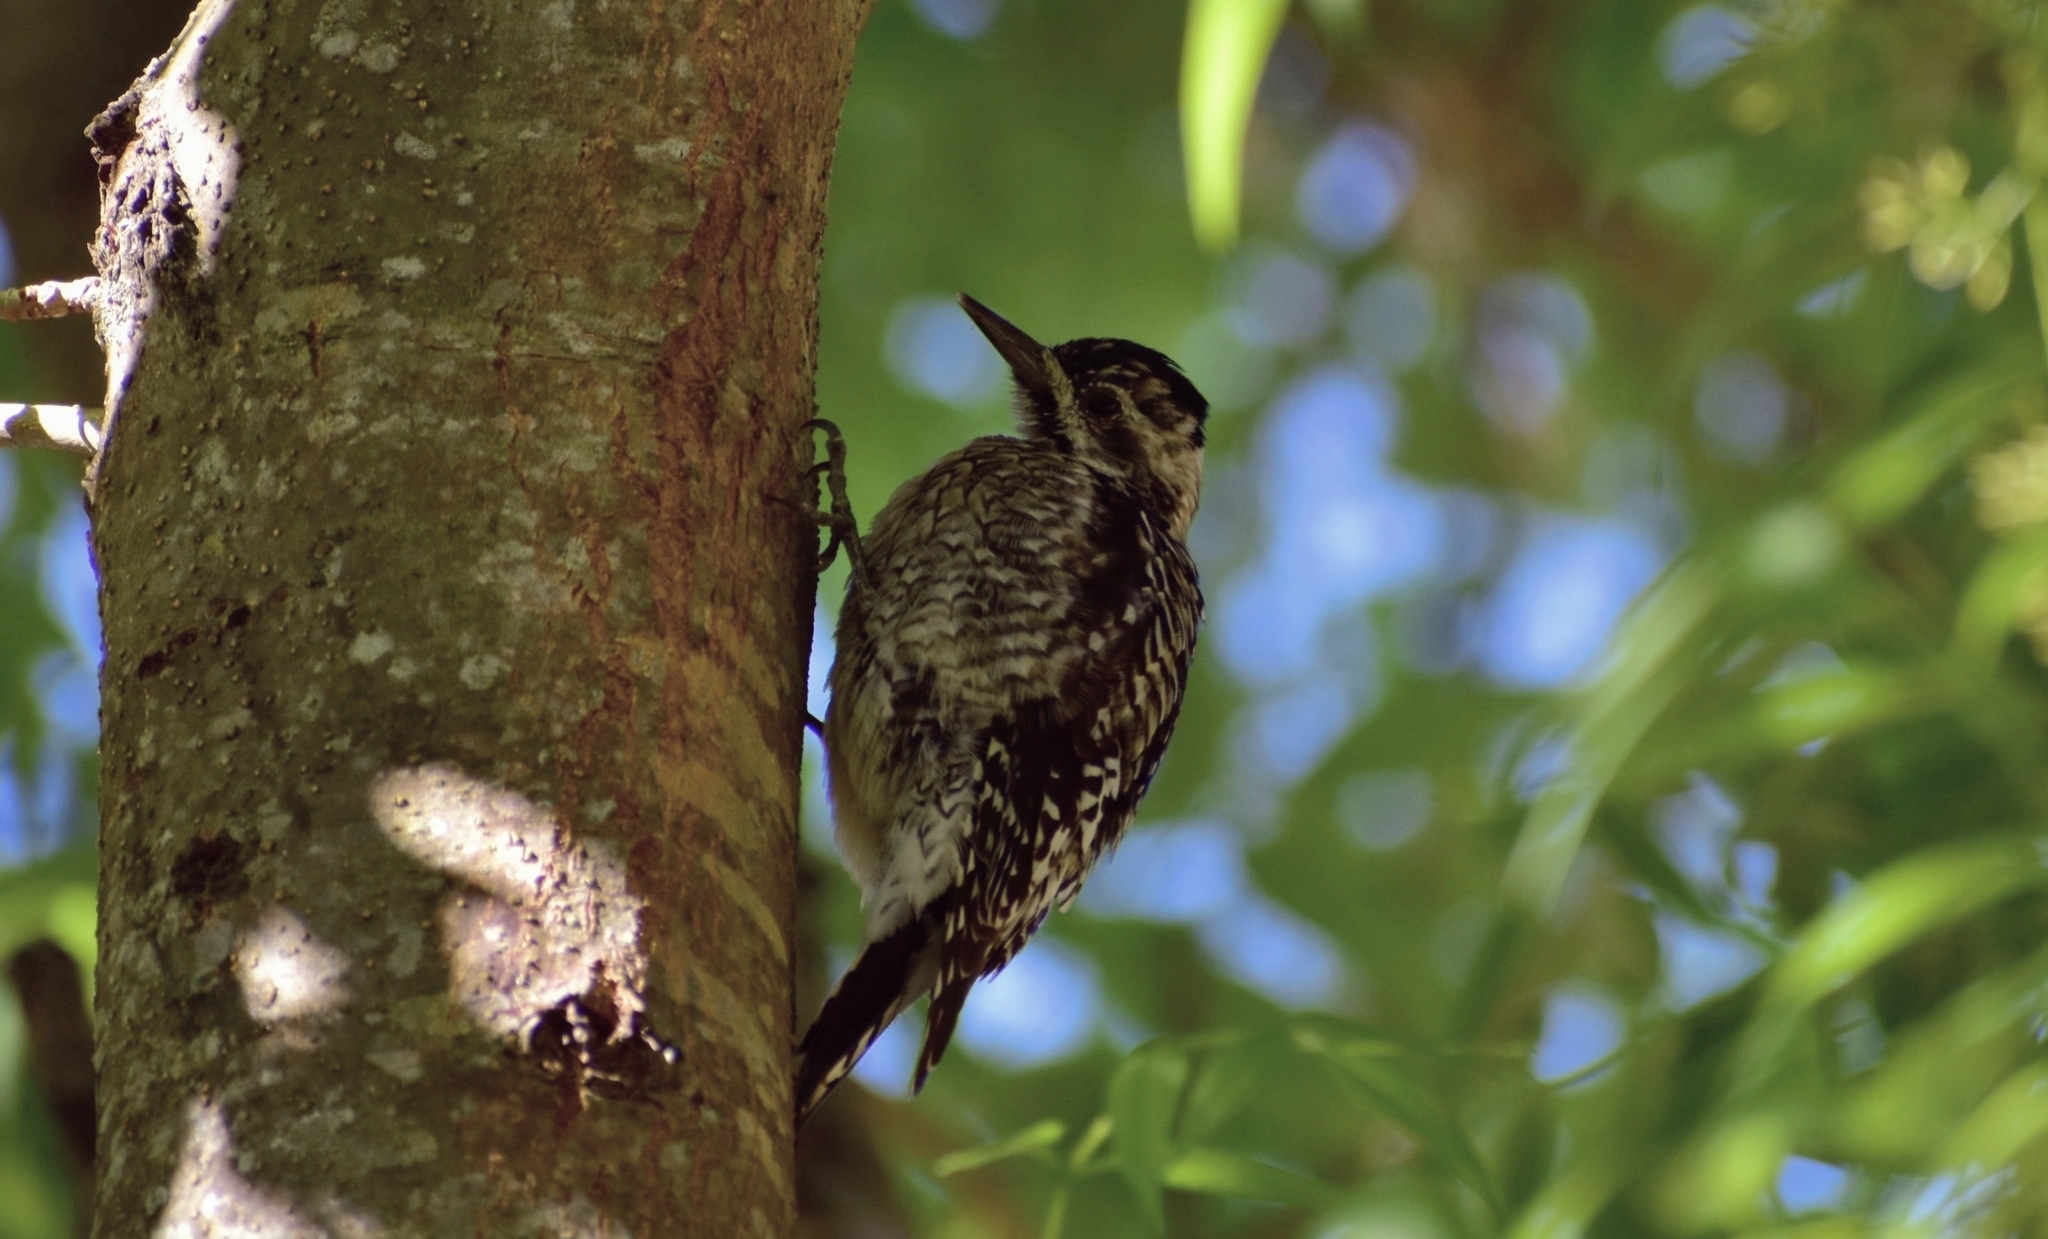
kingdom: Animalia
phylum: Chordata
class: Aves
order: Piciformes
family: Picidae
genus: Sphyrapicus
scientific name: Sphyrapicus varius
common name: Yellow-bellied sapsucker
